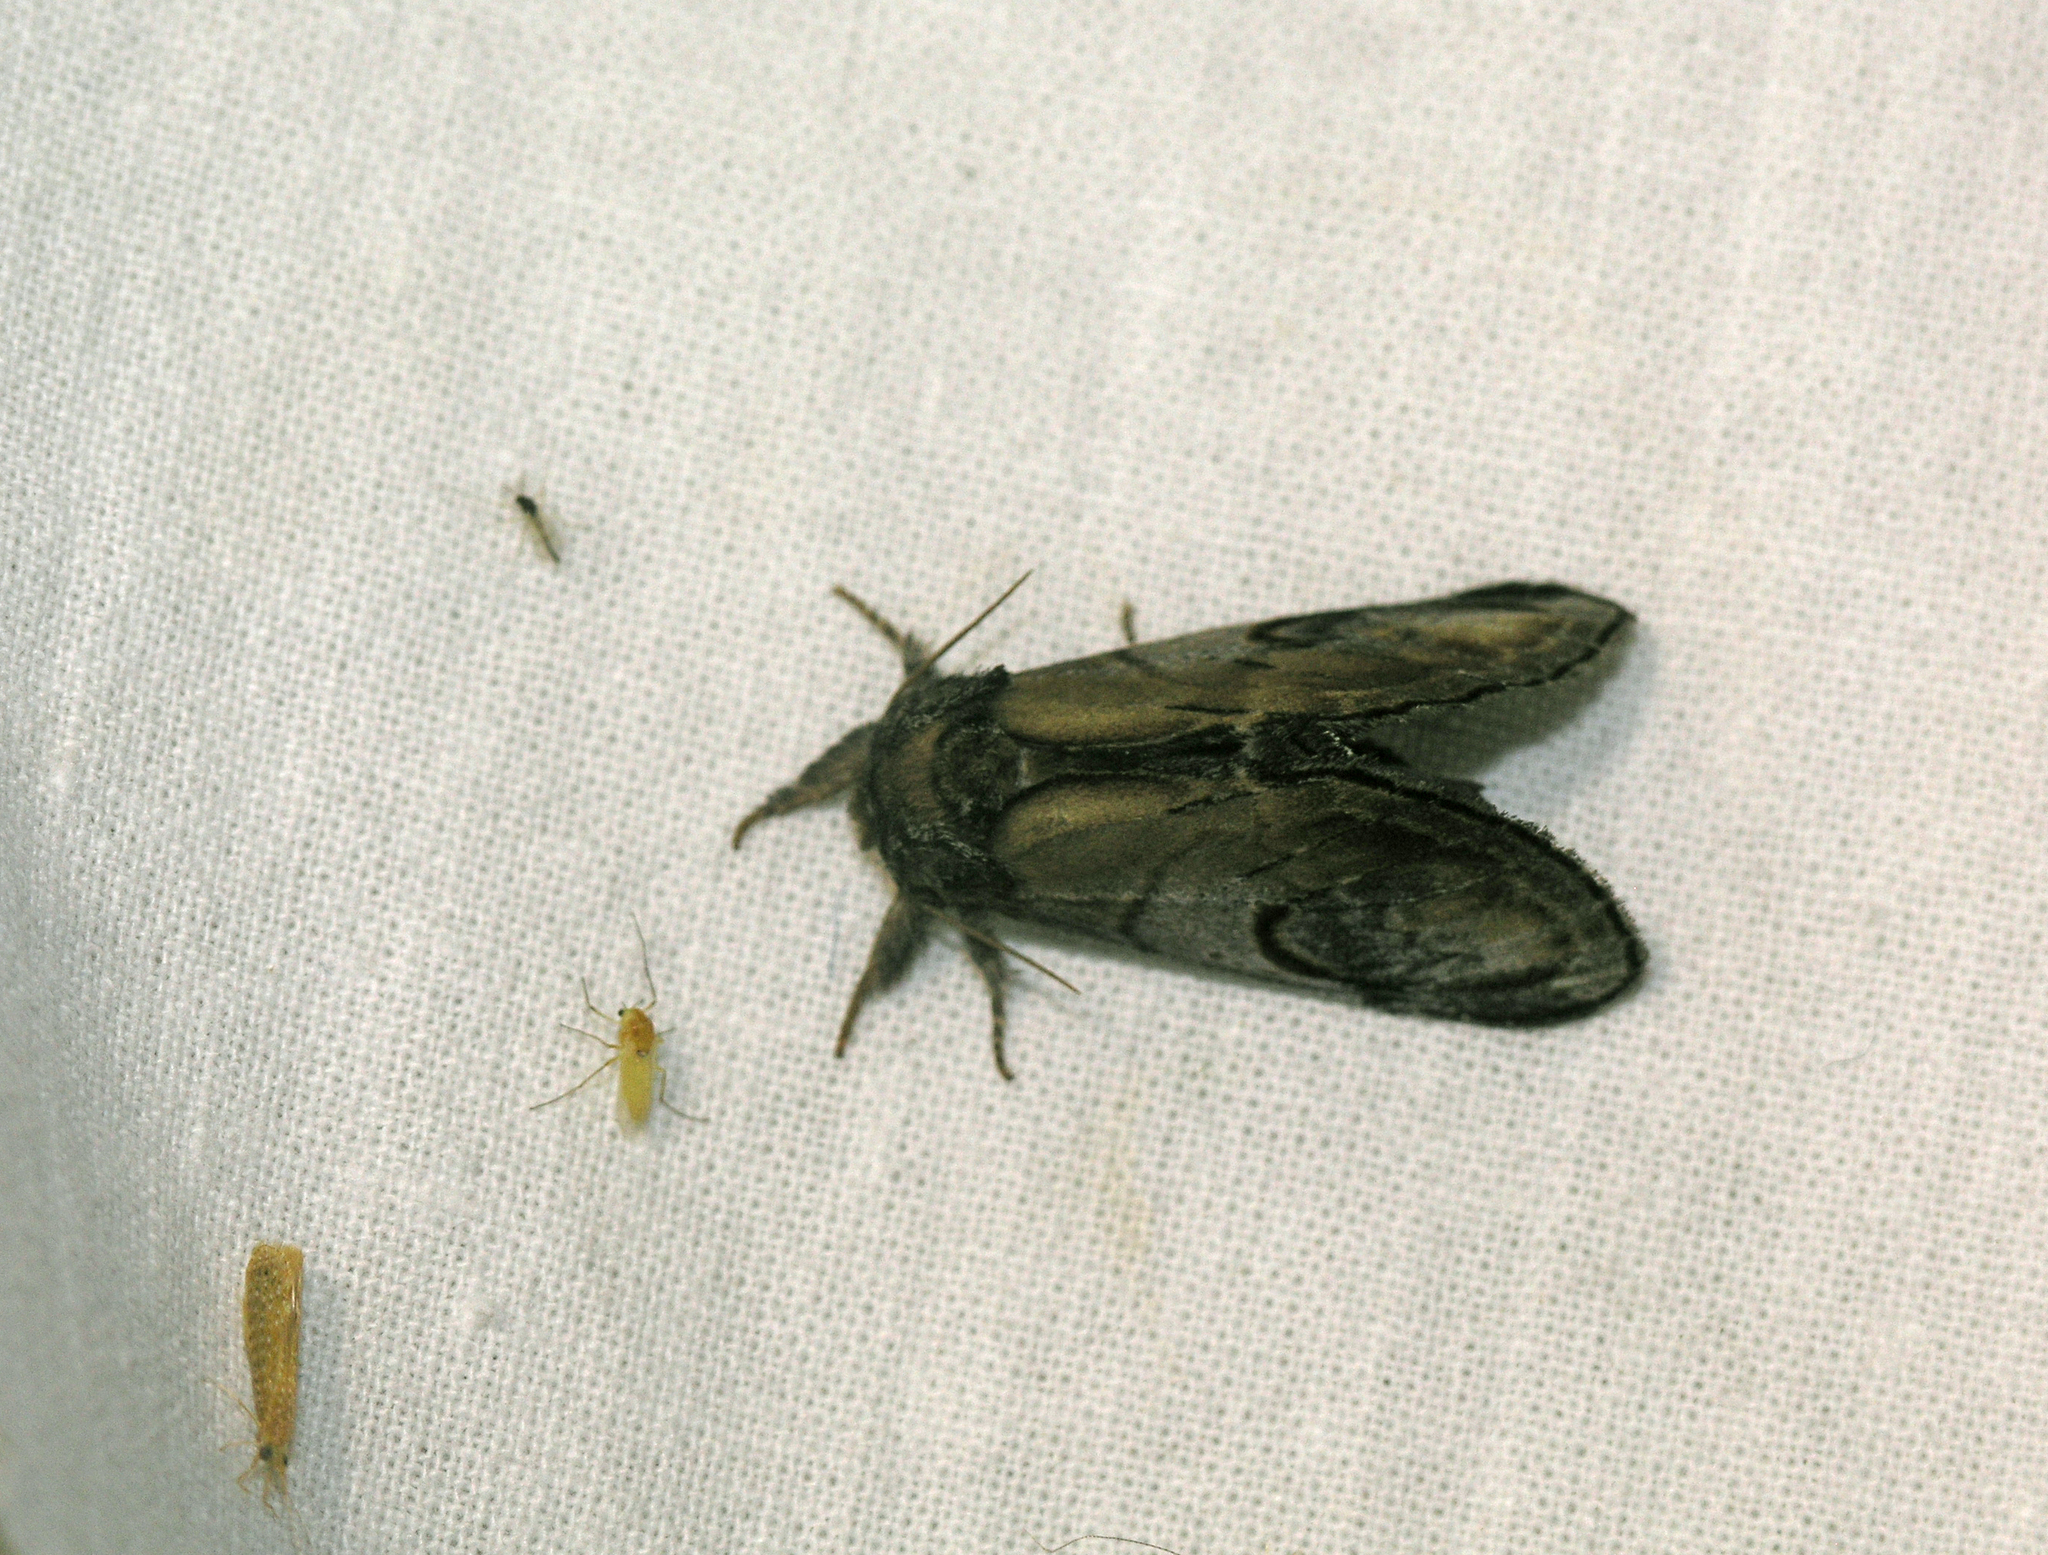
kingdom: Animalia
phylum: Arthropoda
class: Insecta
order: Lepidoptera
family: Notodontidae
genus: Notodonta
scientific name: Notodonta ziczac
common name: Pebble prominent
